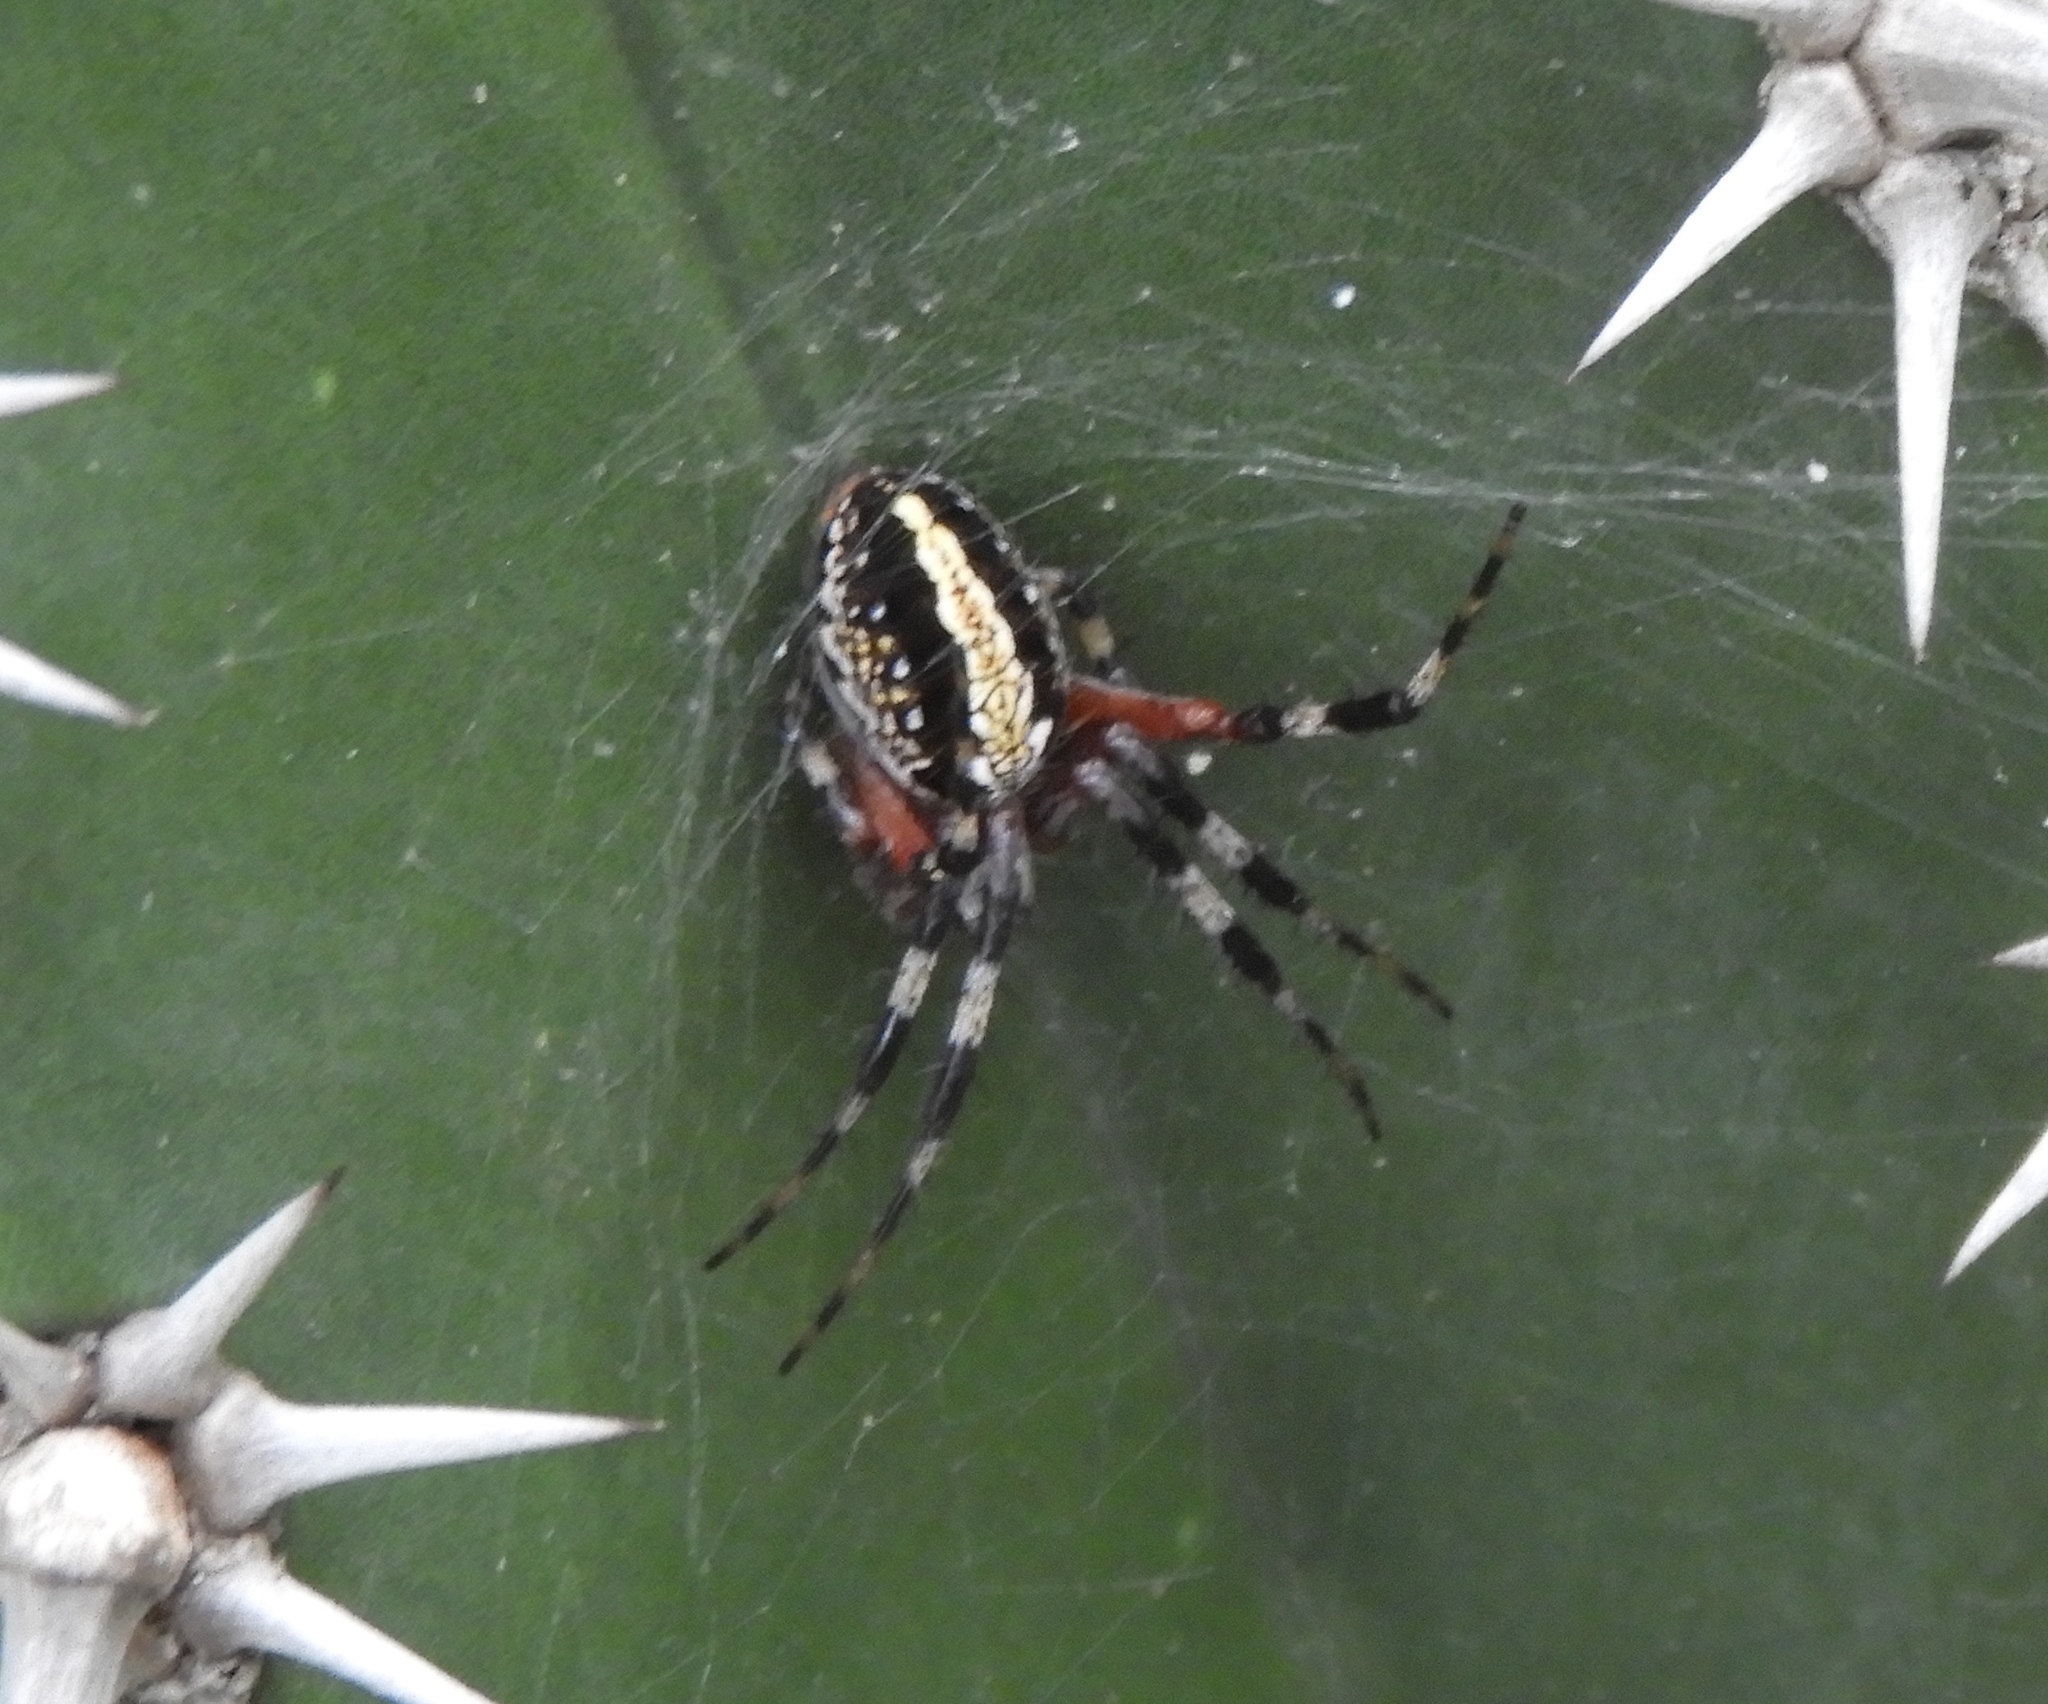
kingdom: Animalia
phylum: Arthropoda
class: Arachnida
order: Araneae
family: Araneidae
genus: Neoscona
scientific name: Neoscona oaxacensis
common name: Orb weavers
